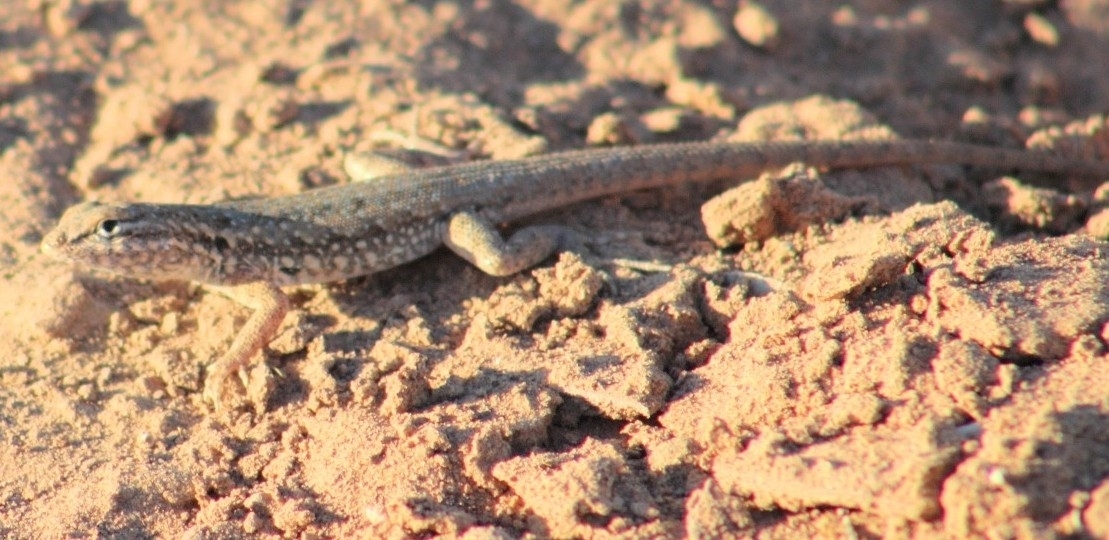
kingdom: Animalia
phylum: Chordata
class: Squamata
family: Phrynosomatidae
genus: Uta
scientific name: Uta stansburiana
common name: Side-blotched lizard
